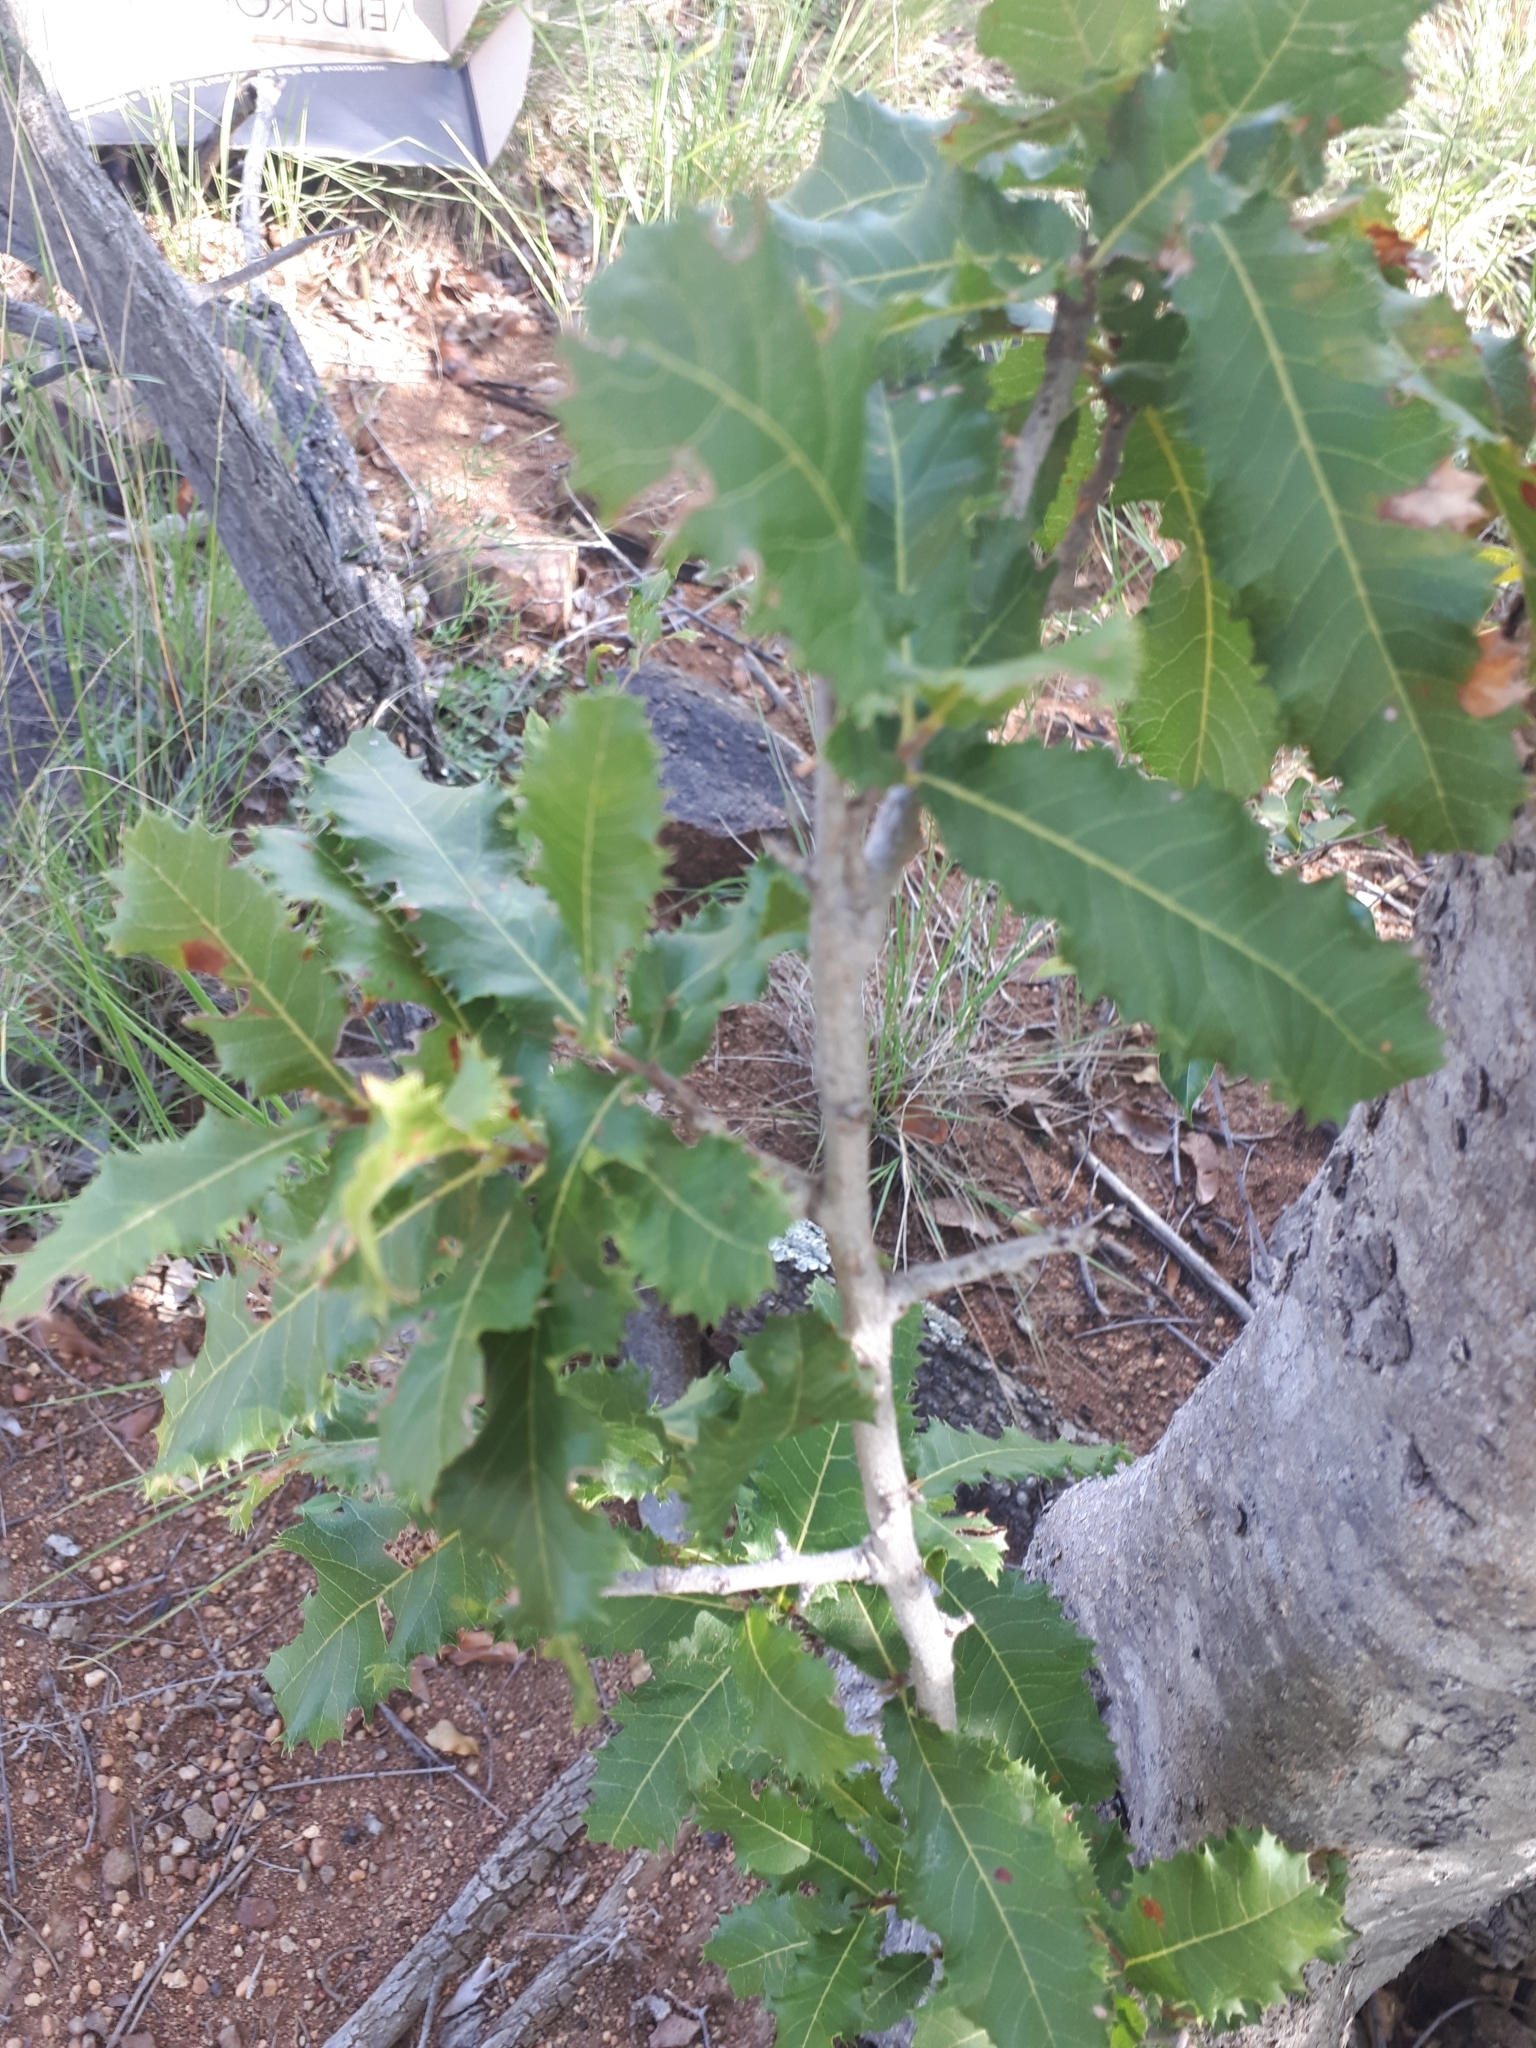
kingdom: Plantae
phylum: Tracheophyta
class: Magnoliopsida
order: Sapindales
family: Sapindaceae
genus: Pappea
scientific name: Pappea capensis
